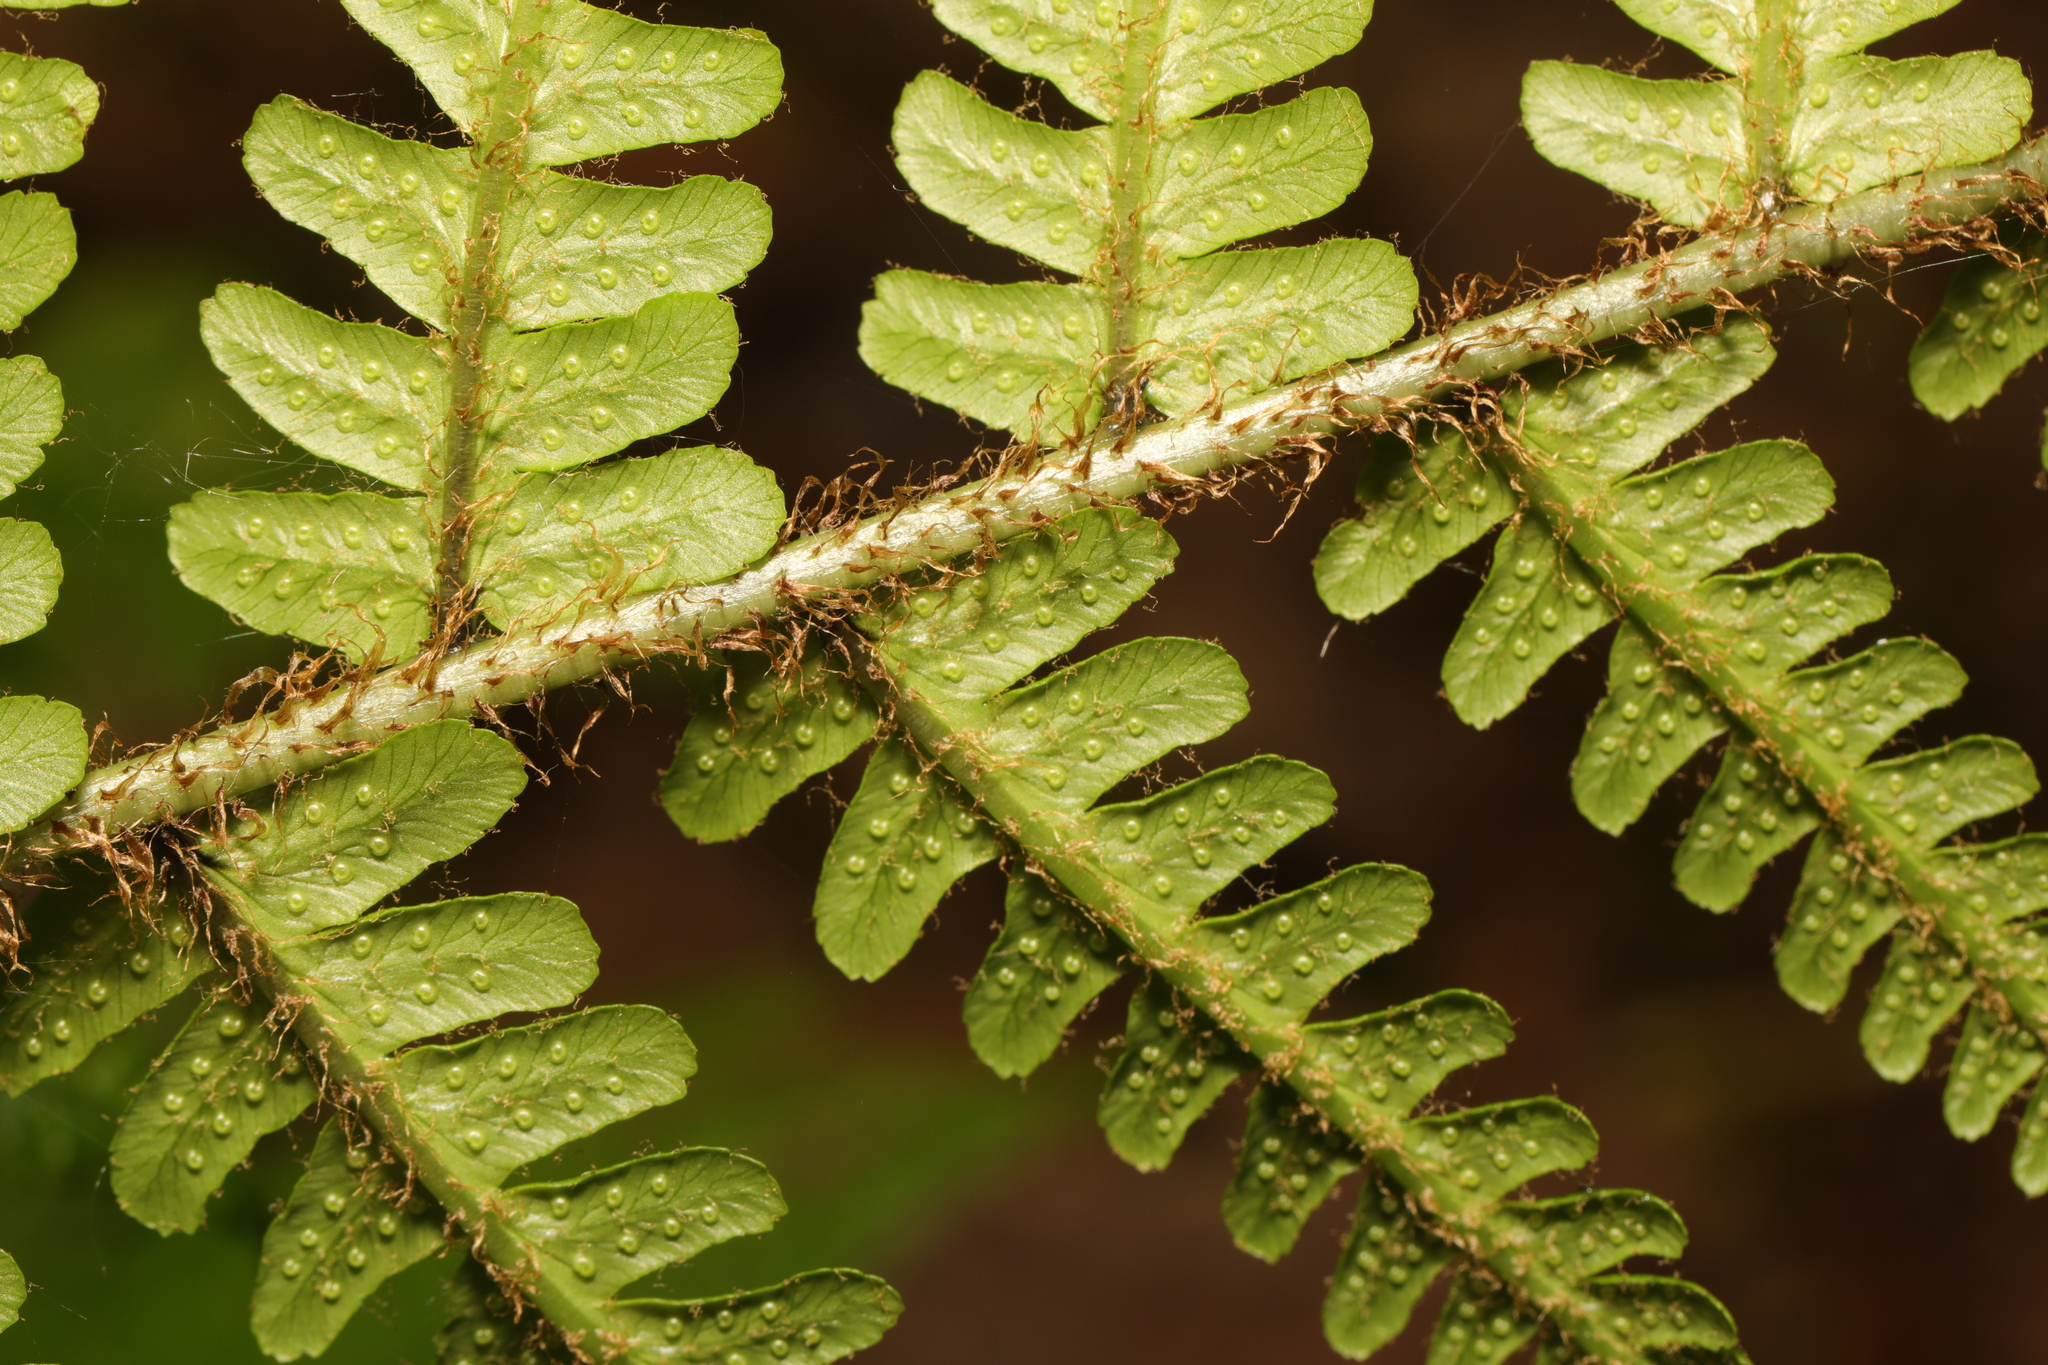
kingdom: Plantae
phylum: Tracheophyta
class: Polypodiopsida
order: Polypodiales
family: Dryopteridaceae
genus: Dryopteris
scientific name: Dryopteris borreri
